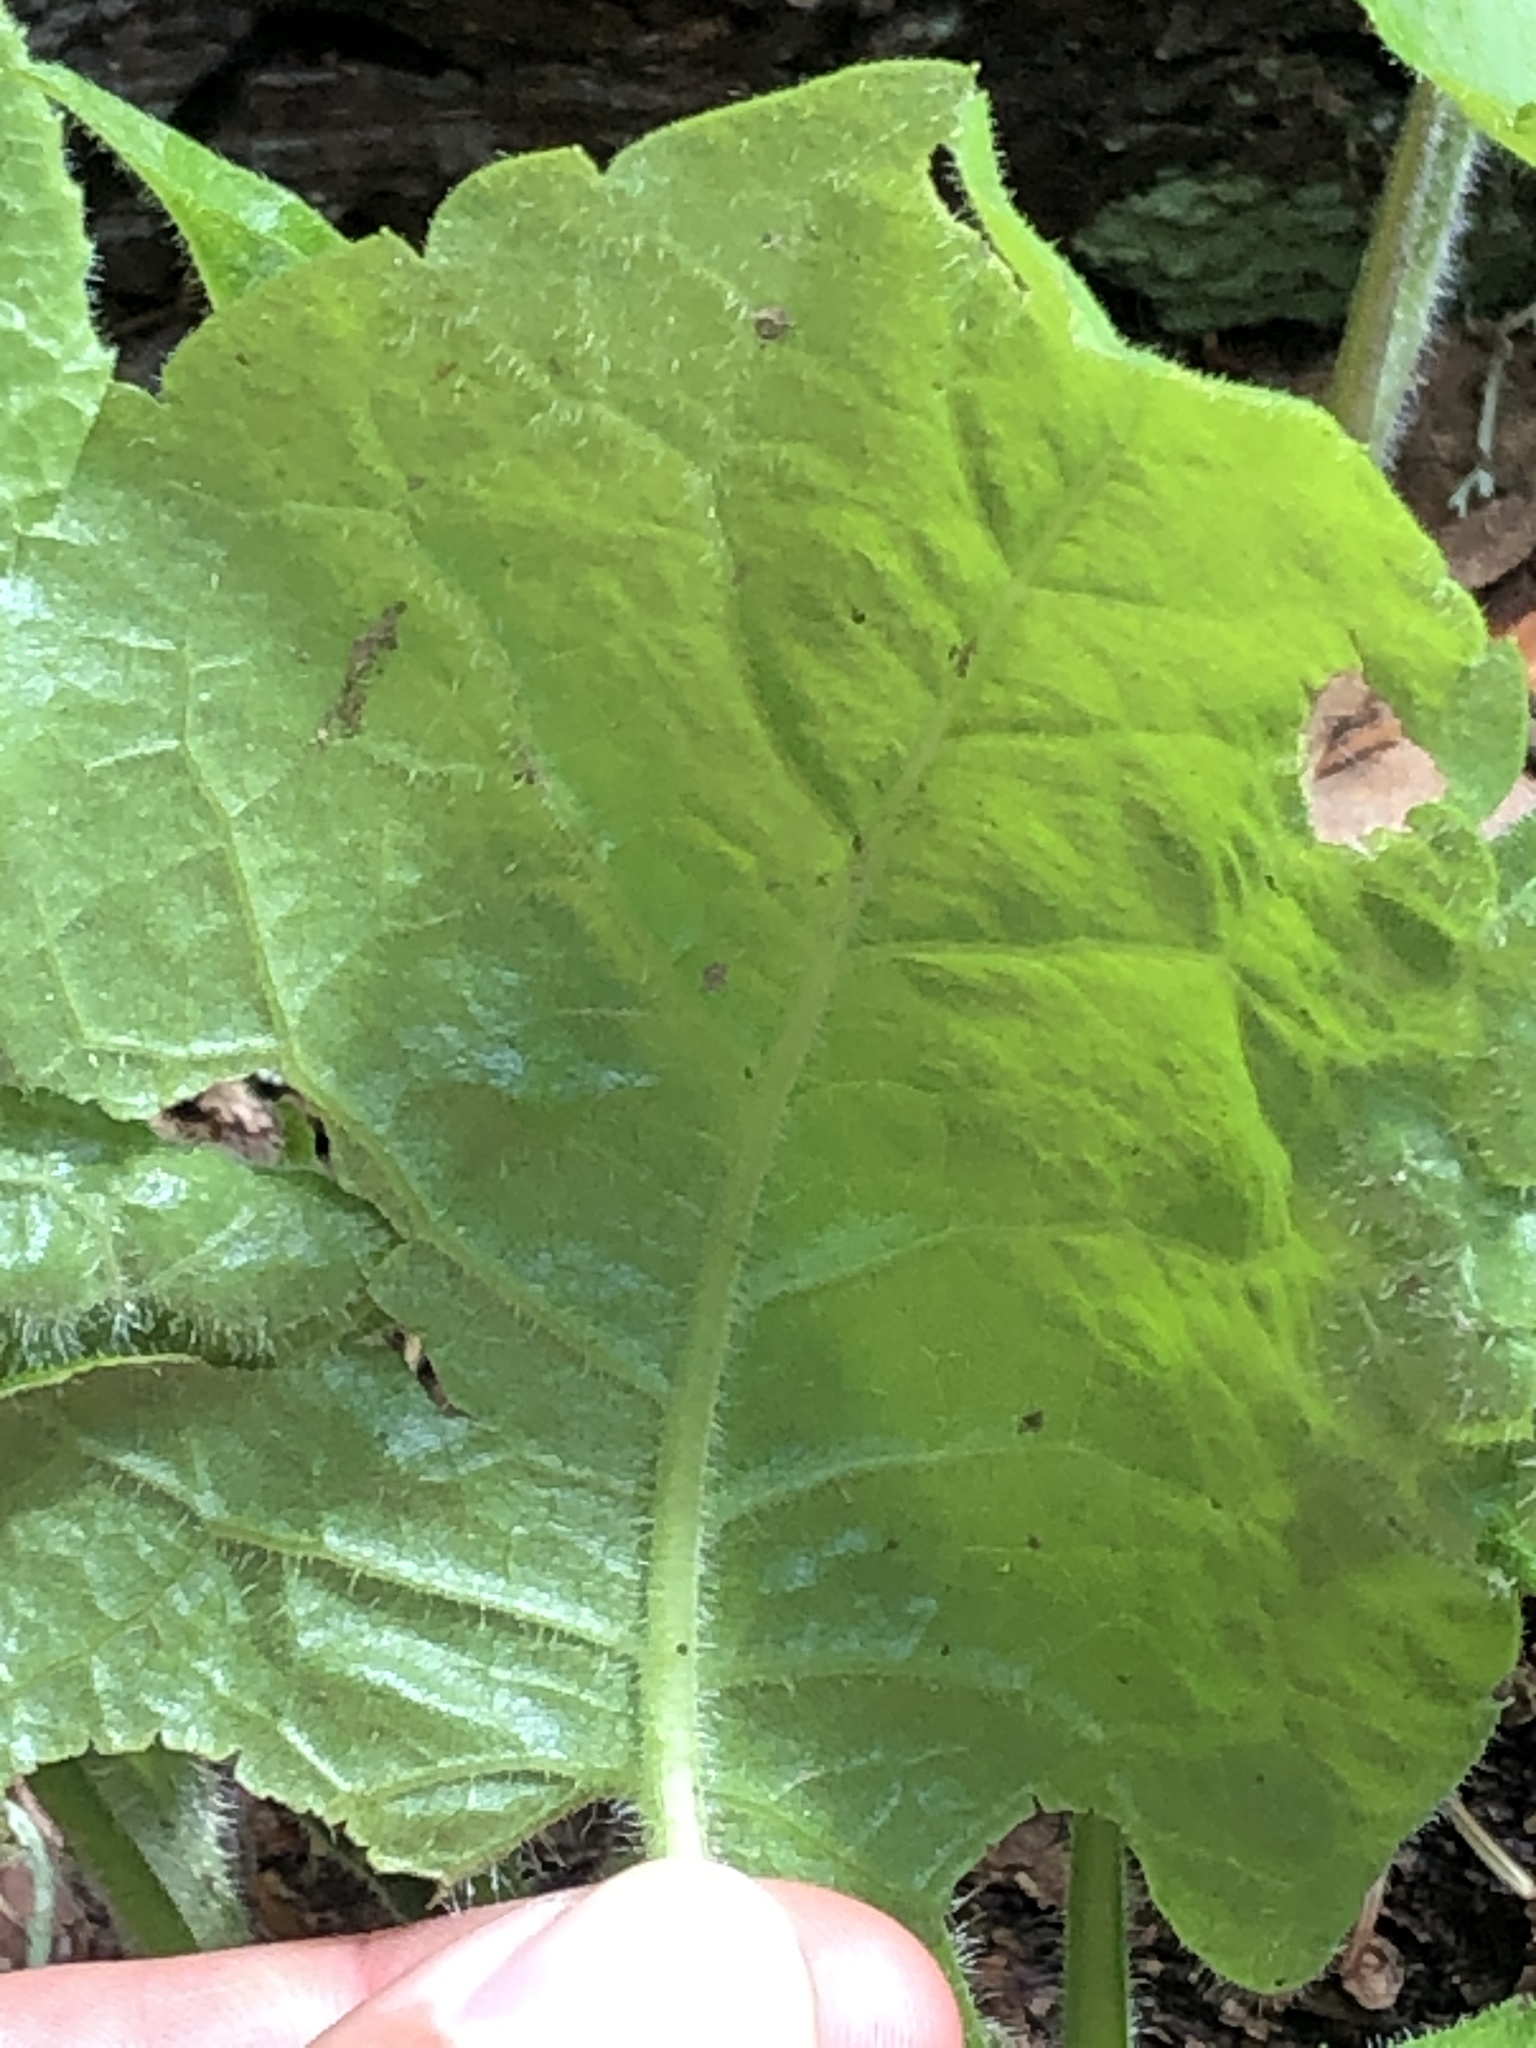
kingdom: Plantae
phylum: Tracheophyta
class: Magnoliopsida
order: Asterales
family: Asteraceae
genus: Eurybia
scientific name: Eurybia macrophylla
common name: Big-leaved aster
